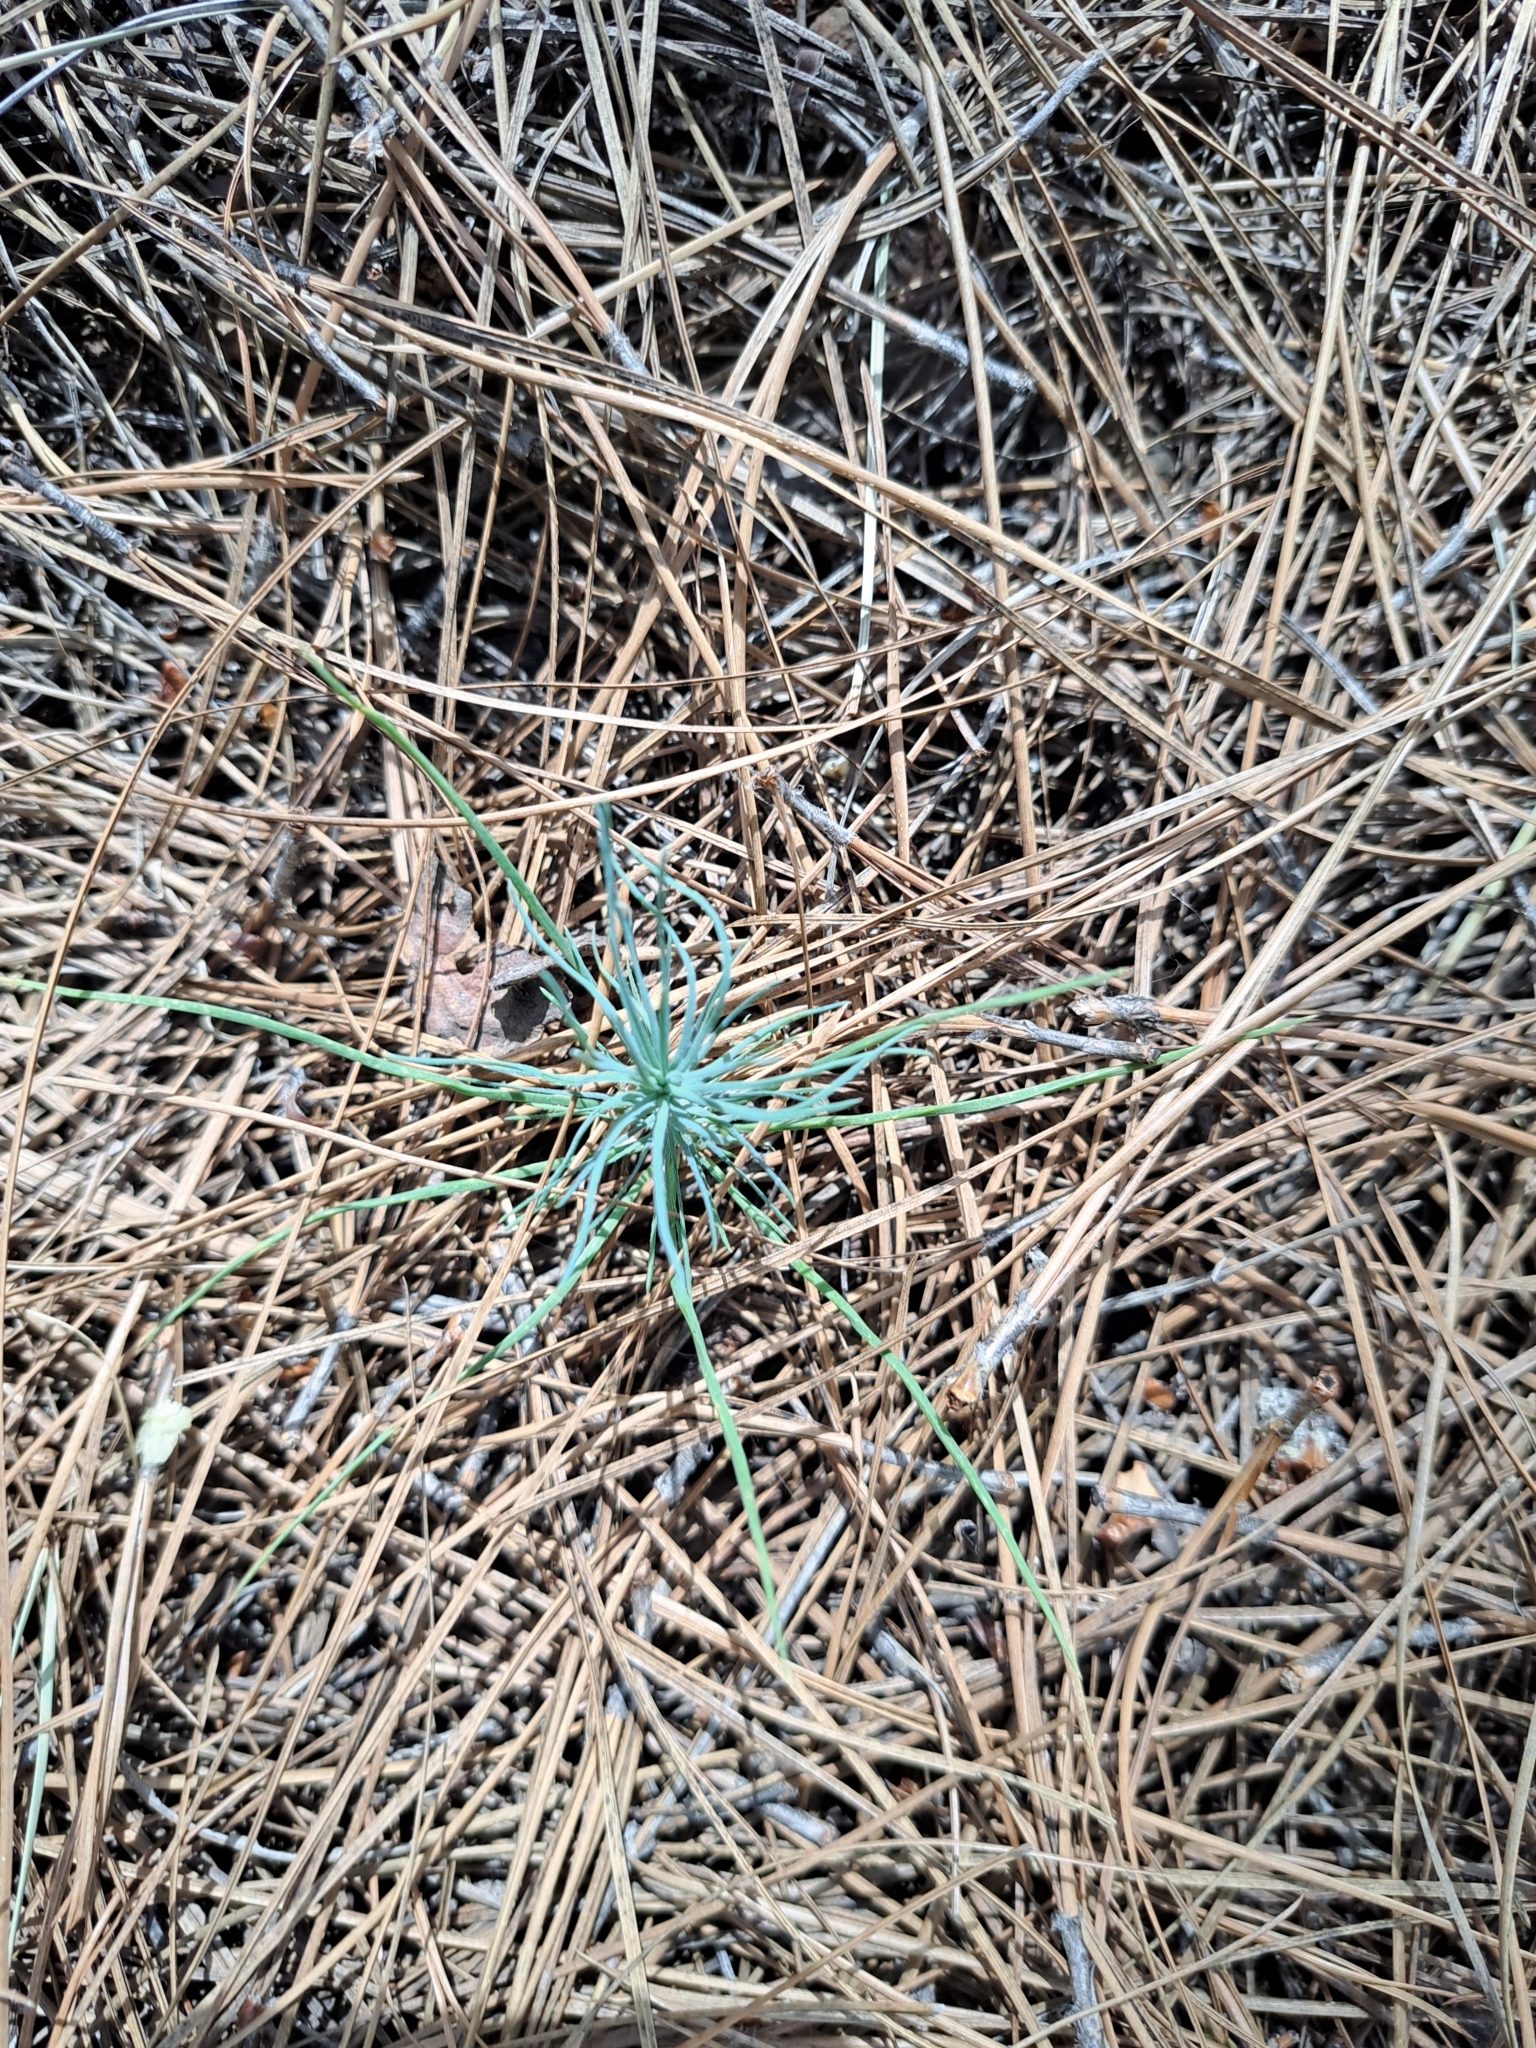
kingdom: Plantae
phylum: Tracheophyta
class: Pinopsida
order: Pinales
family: Pinaceae
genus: Pinus
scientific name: Pinus canariensis
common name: Canary islands pine
